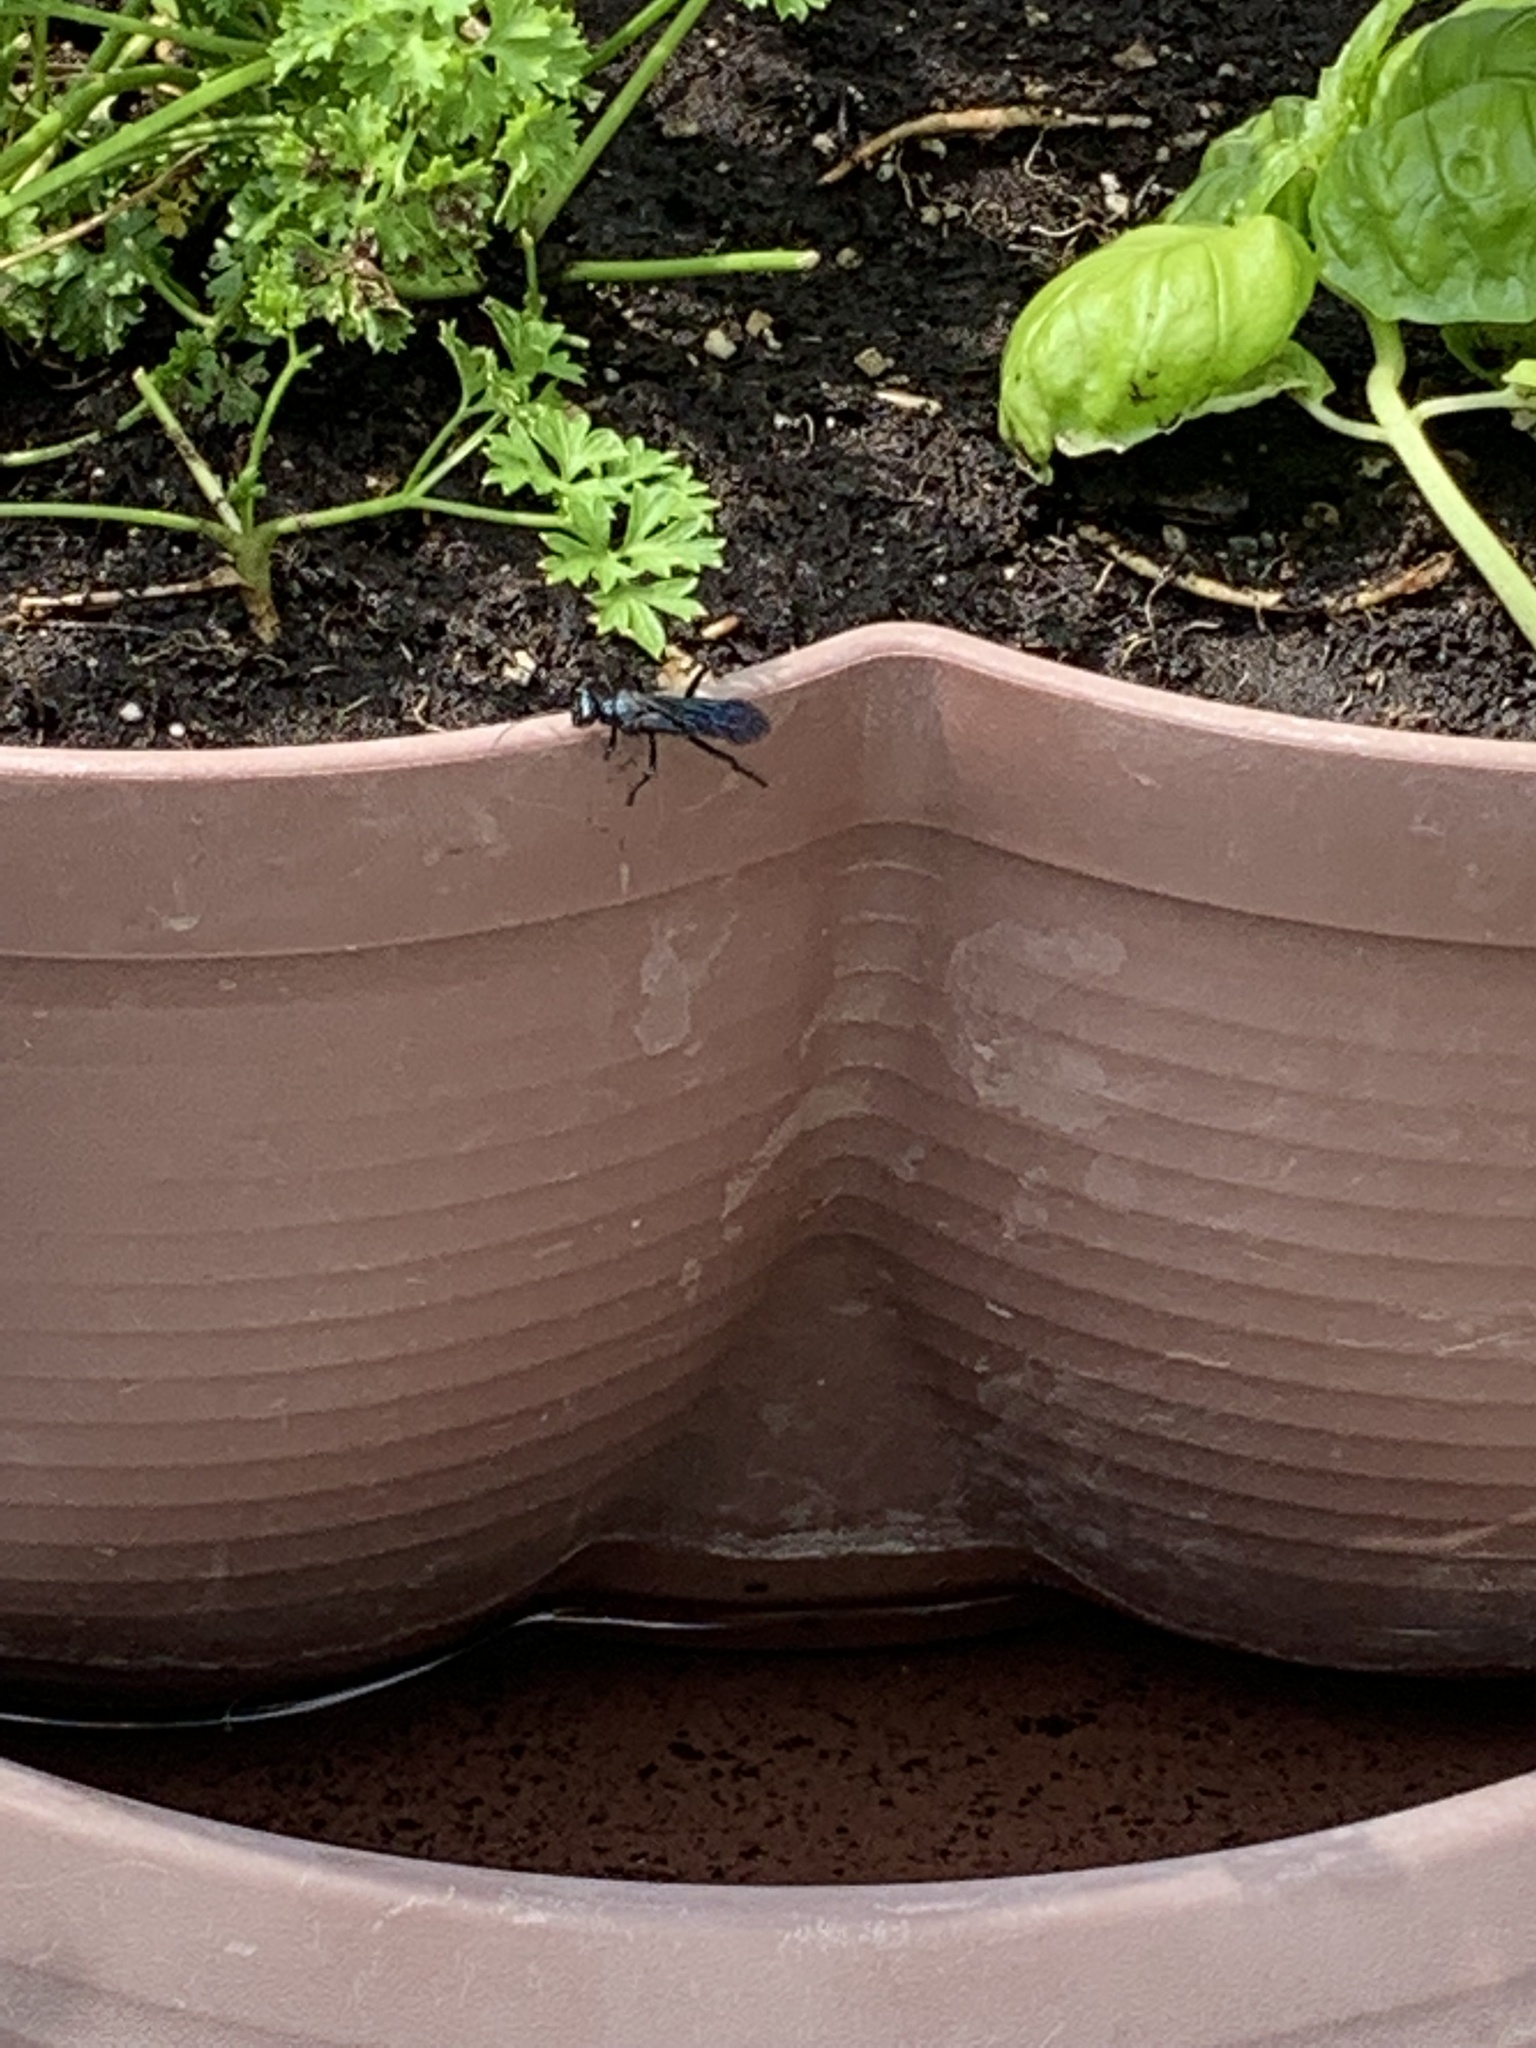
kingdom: Animalia
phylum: Arthropoda
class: Insecta
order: Hymenoptera
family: Sphecidae
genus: Chalybion
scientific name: Chalybion californicum
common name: Mud dauber
